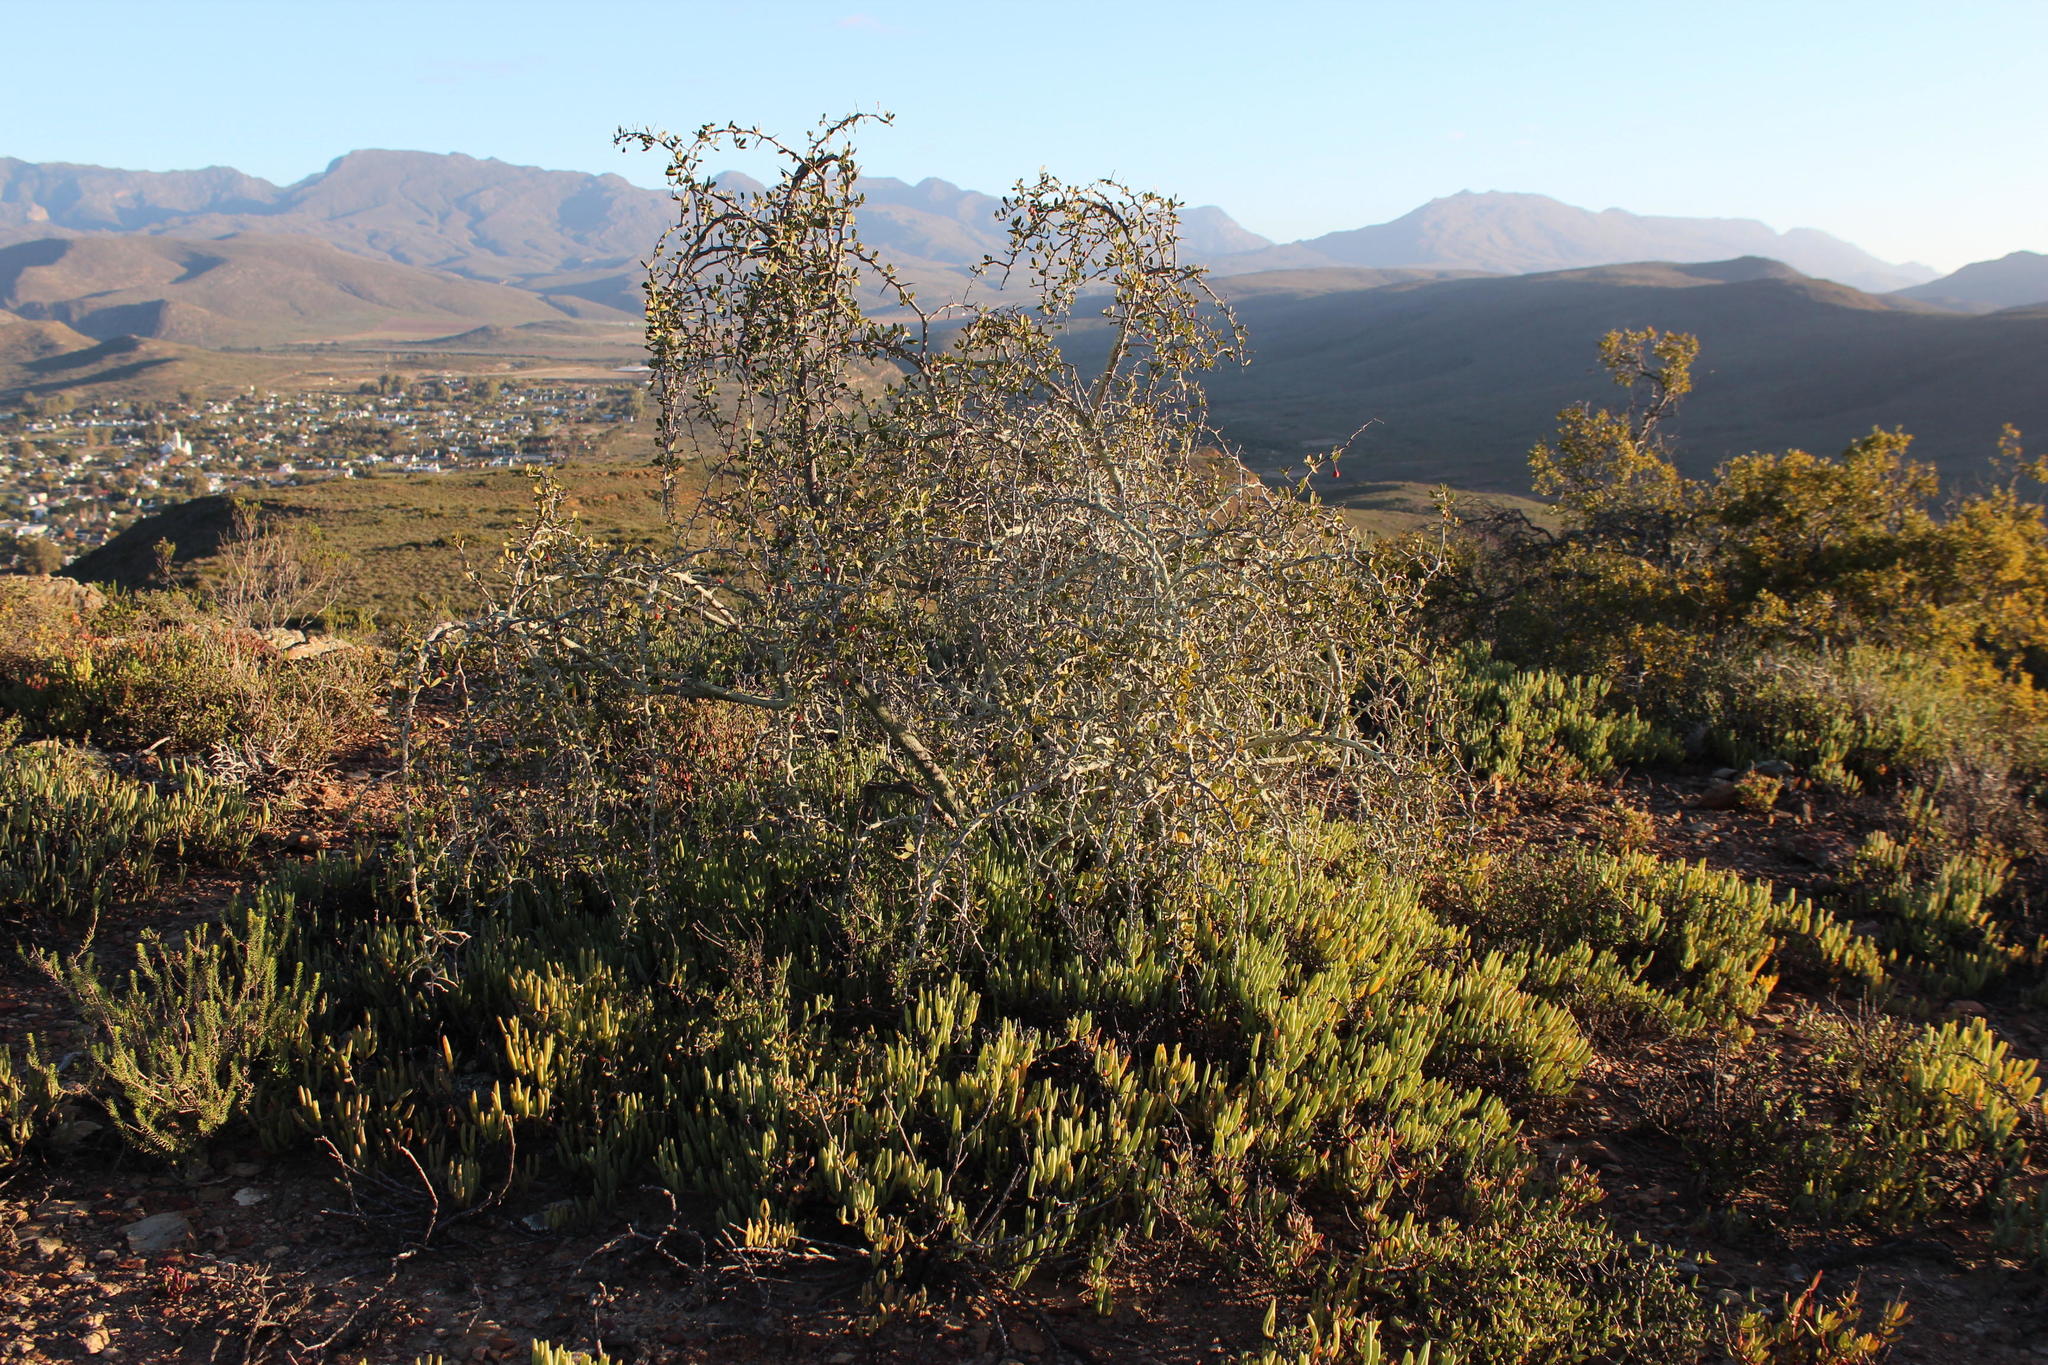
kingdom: Plantae
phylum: Tracheophyta
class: Magnoliopsida
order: Celastrales
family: Celastraceae
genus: Gloveria
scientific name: Gloveria integrifolia
